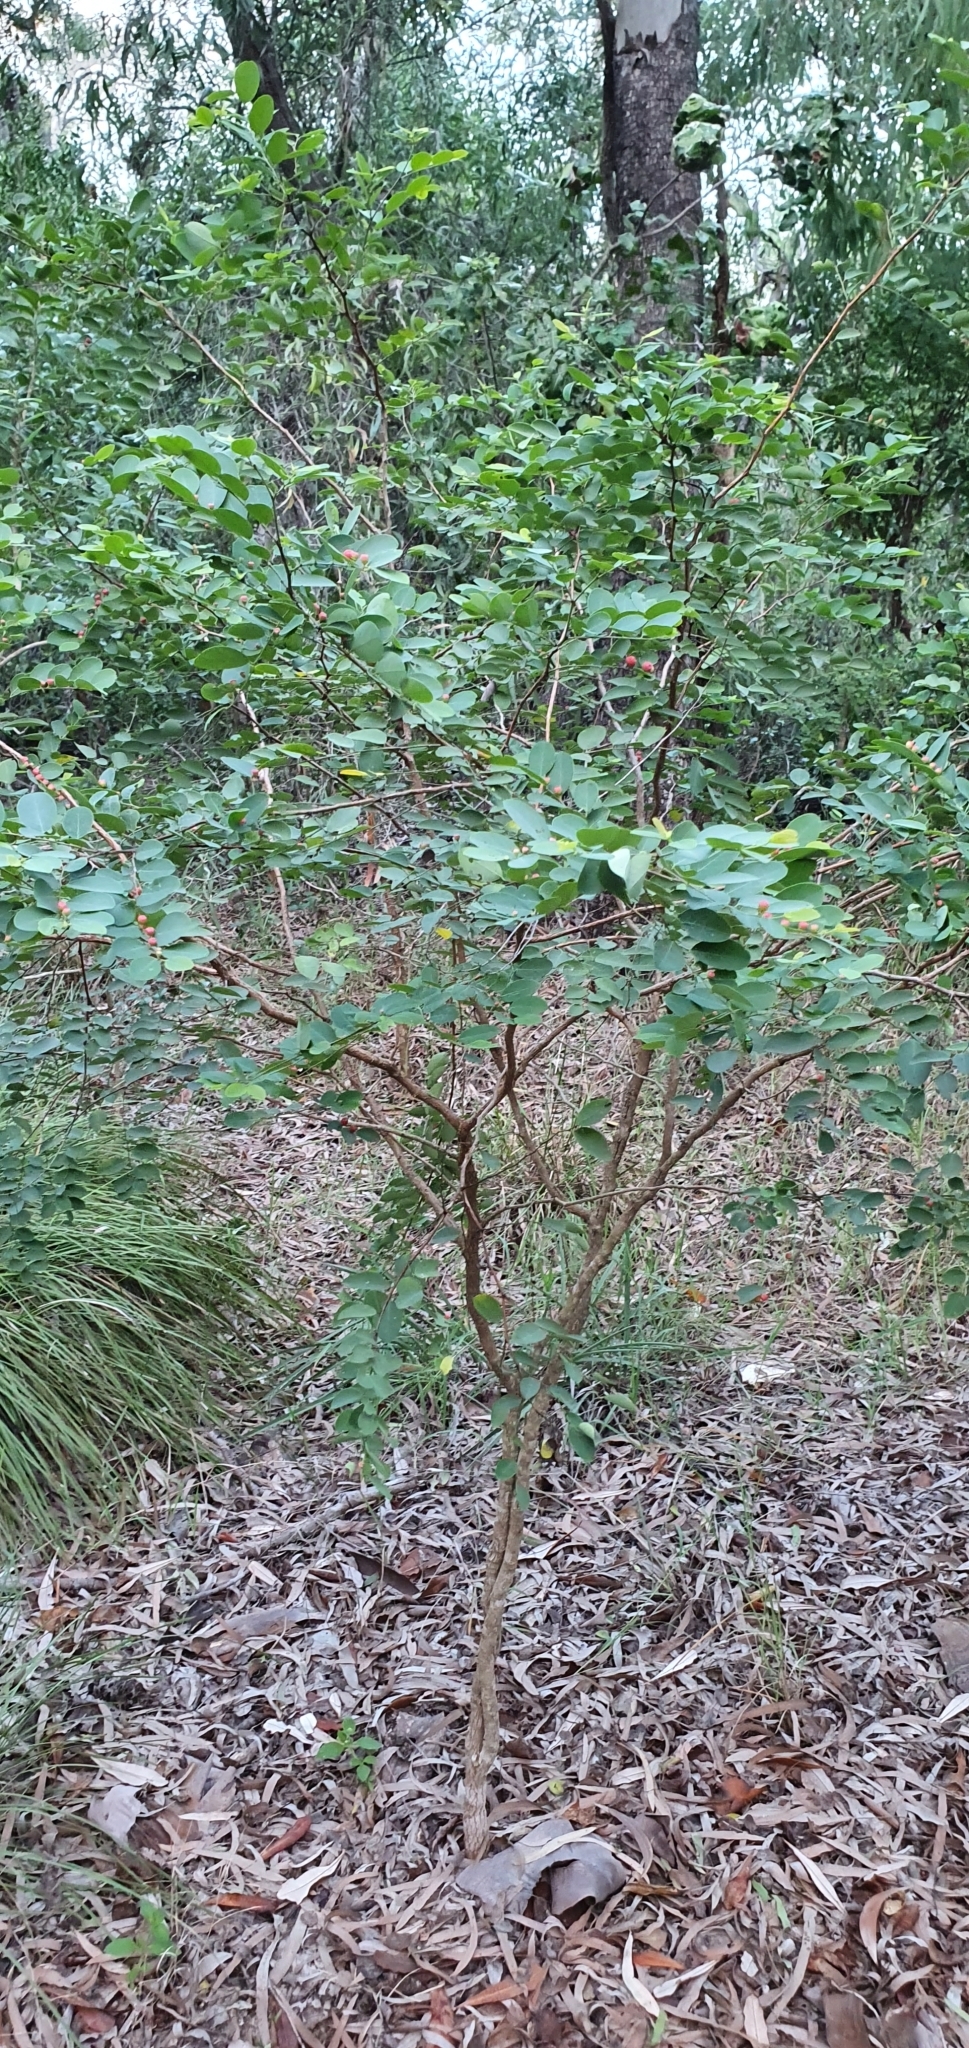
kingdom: Plantae
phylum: Tracheophyta
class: Magnoliopsida
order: Malpighiales
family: Phyllanthaceae
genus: Breynia
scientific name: Breynia oblongifolia
